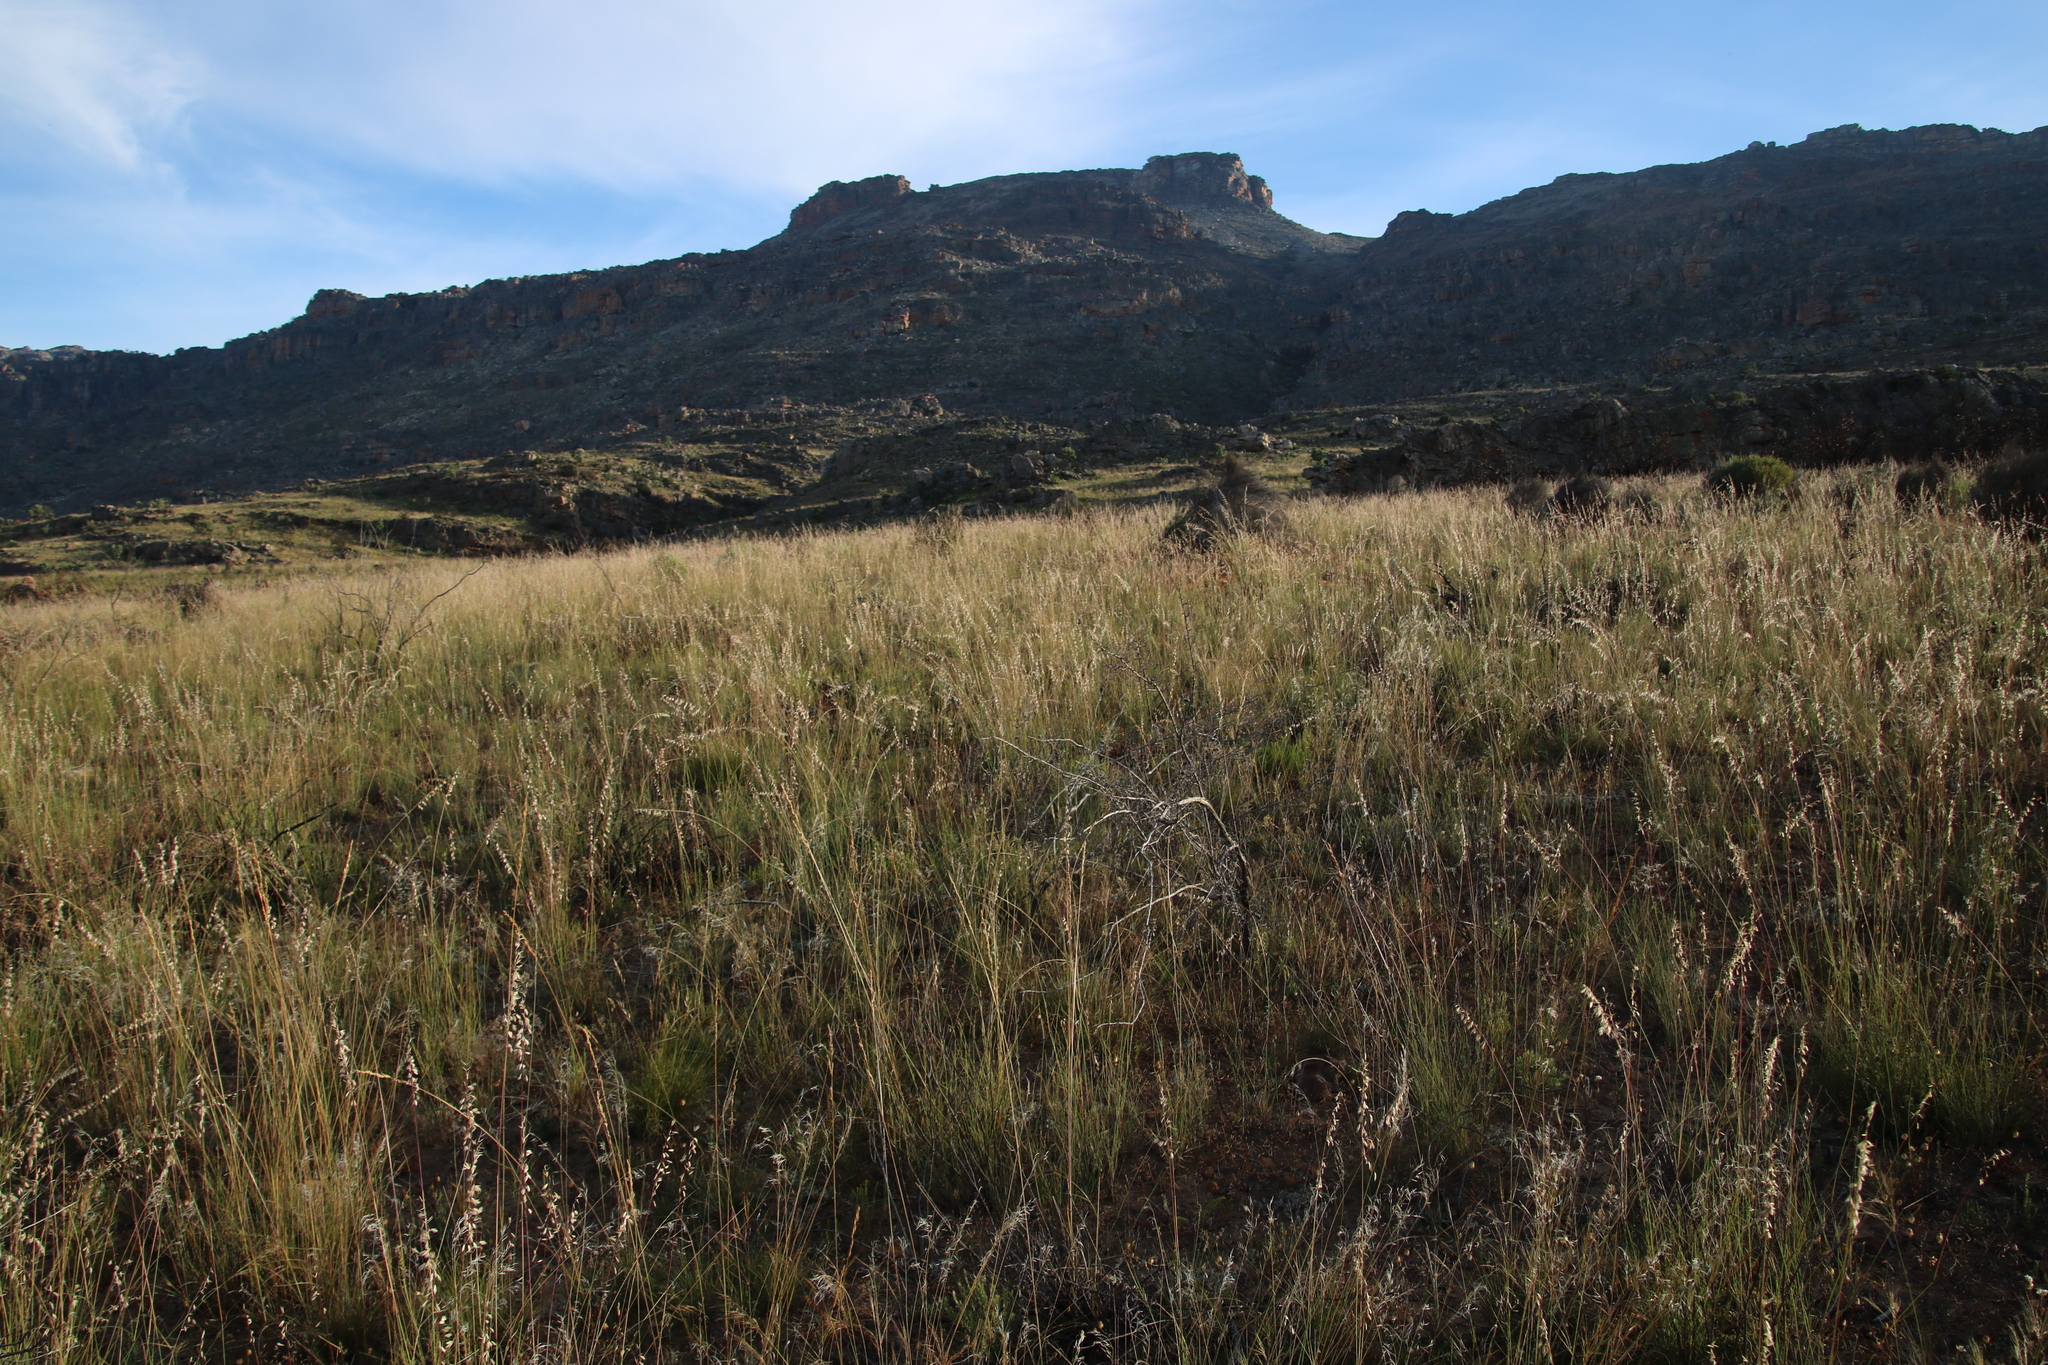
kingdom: Plantae
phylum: Tracheophyta
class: Liliopsida
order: Poales
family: Poaceae
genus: Ehrharta
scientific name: Ehrharta thunbergii
